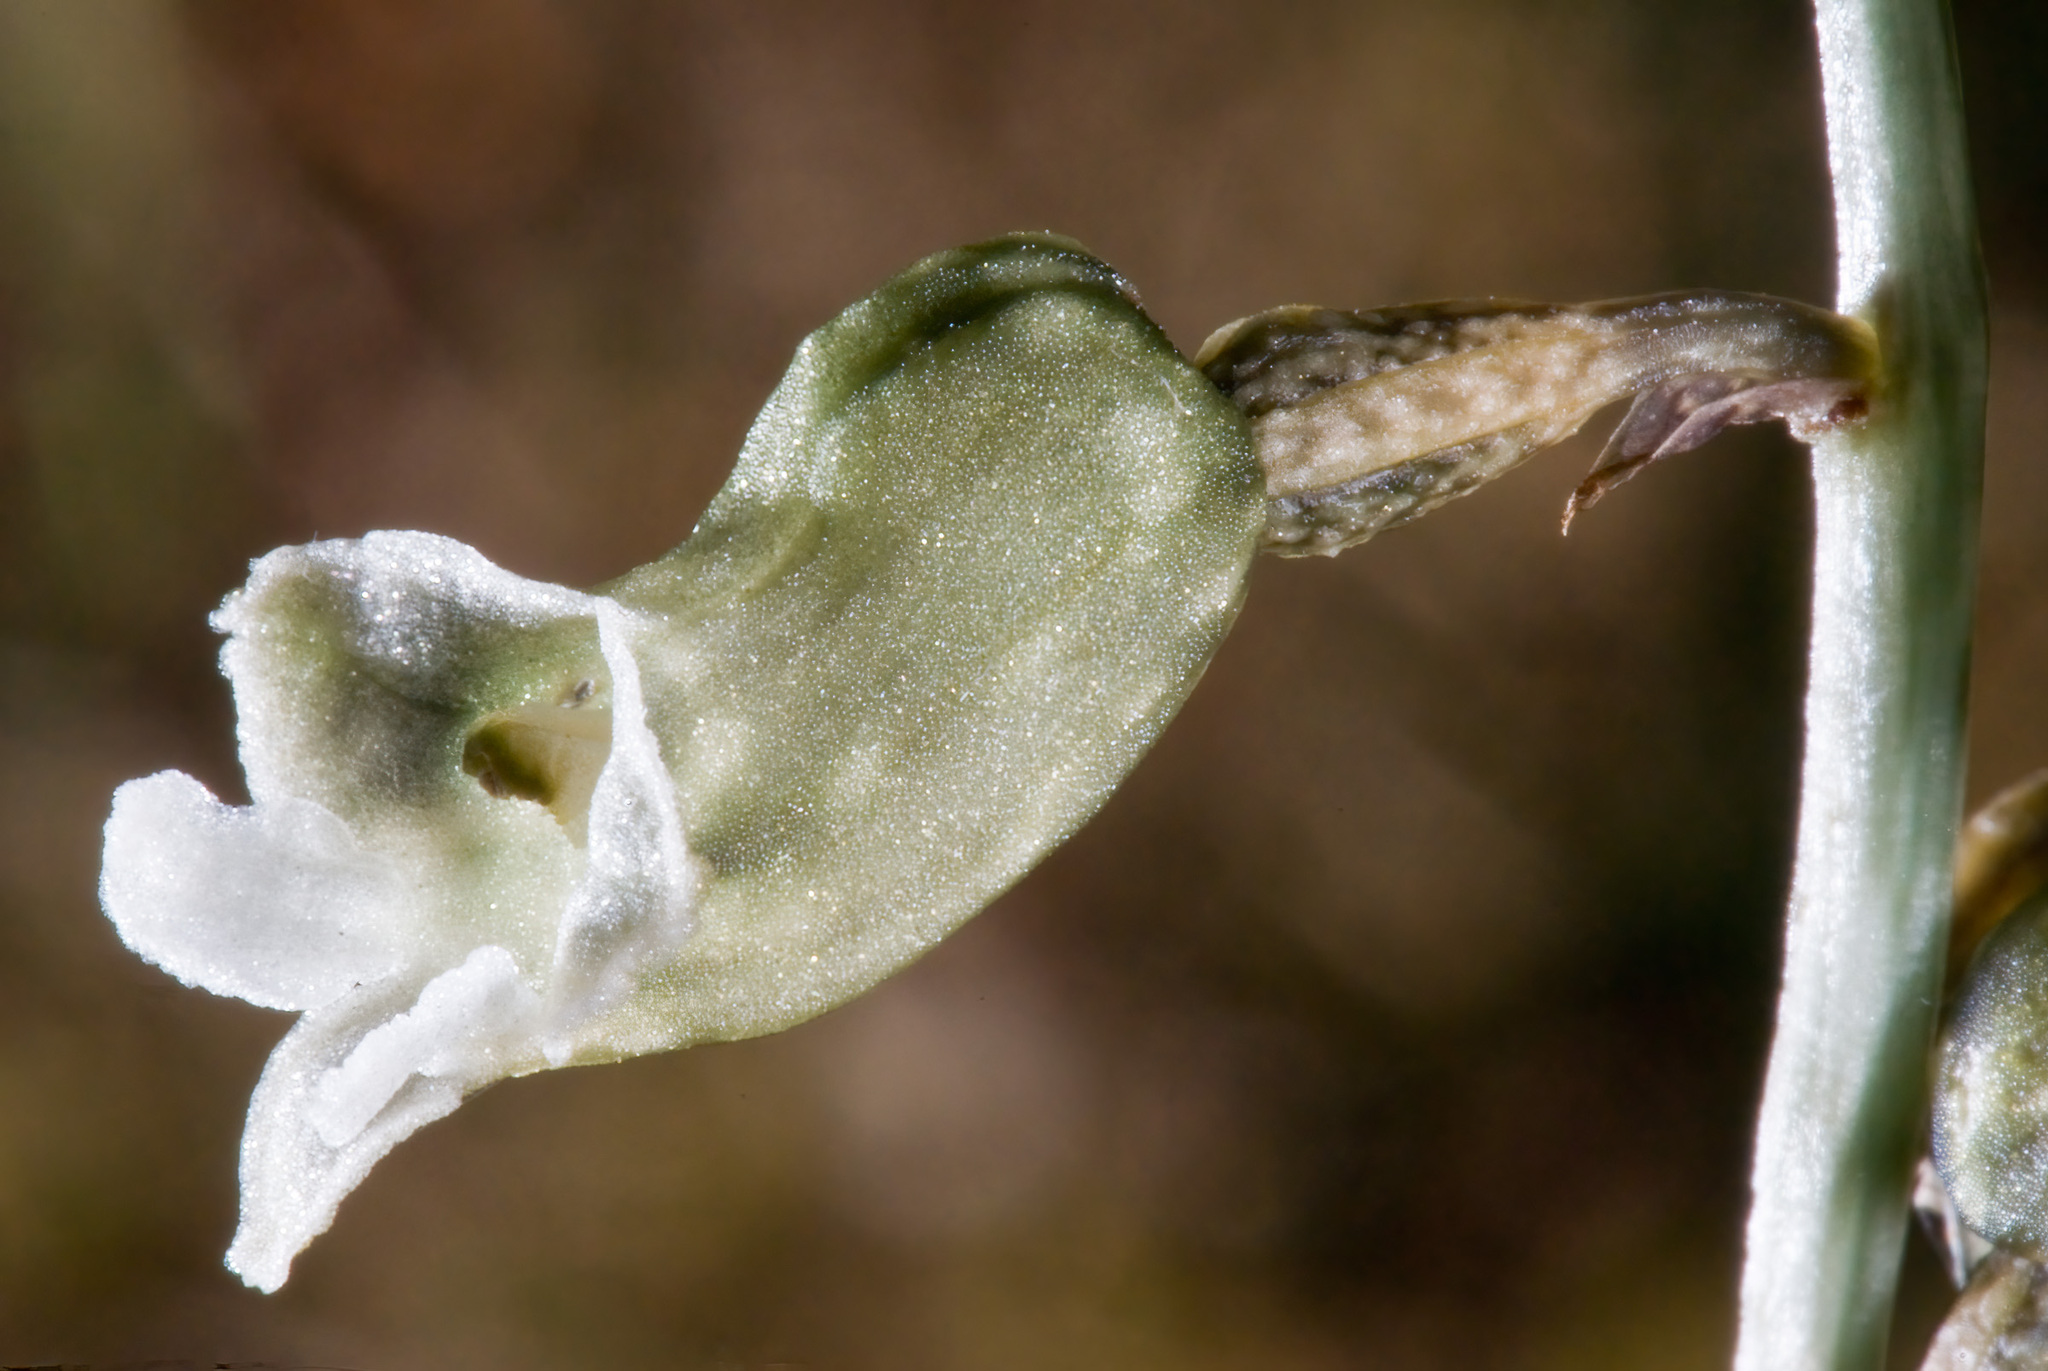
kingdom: Plantae
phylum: Tracheophyta
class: Liliopsida
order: Asparagales
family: Orchidaceae
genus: Gastrodia
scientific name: Gastrodia cunninghamii
